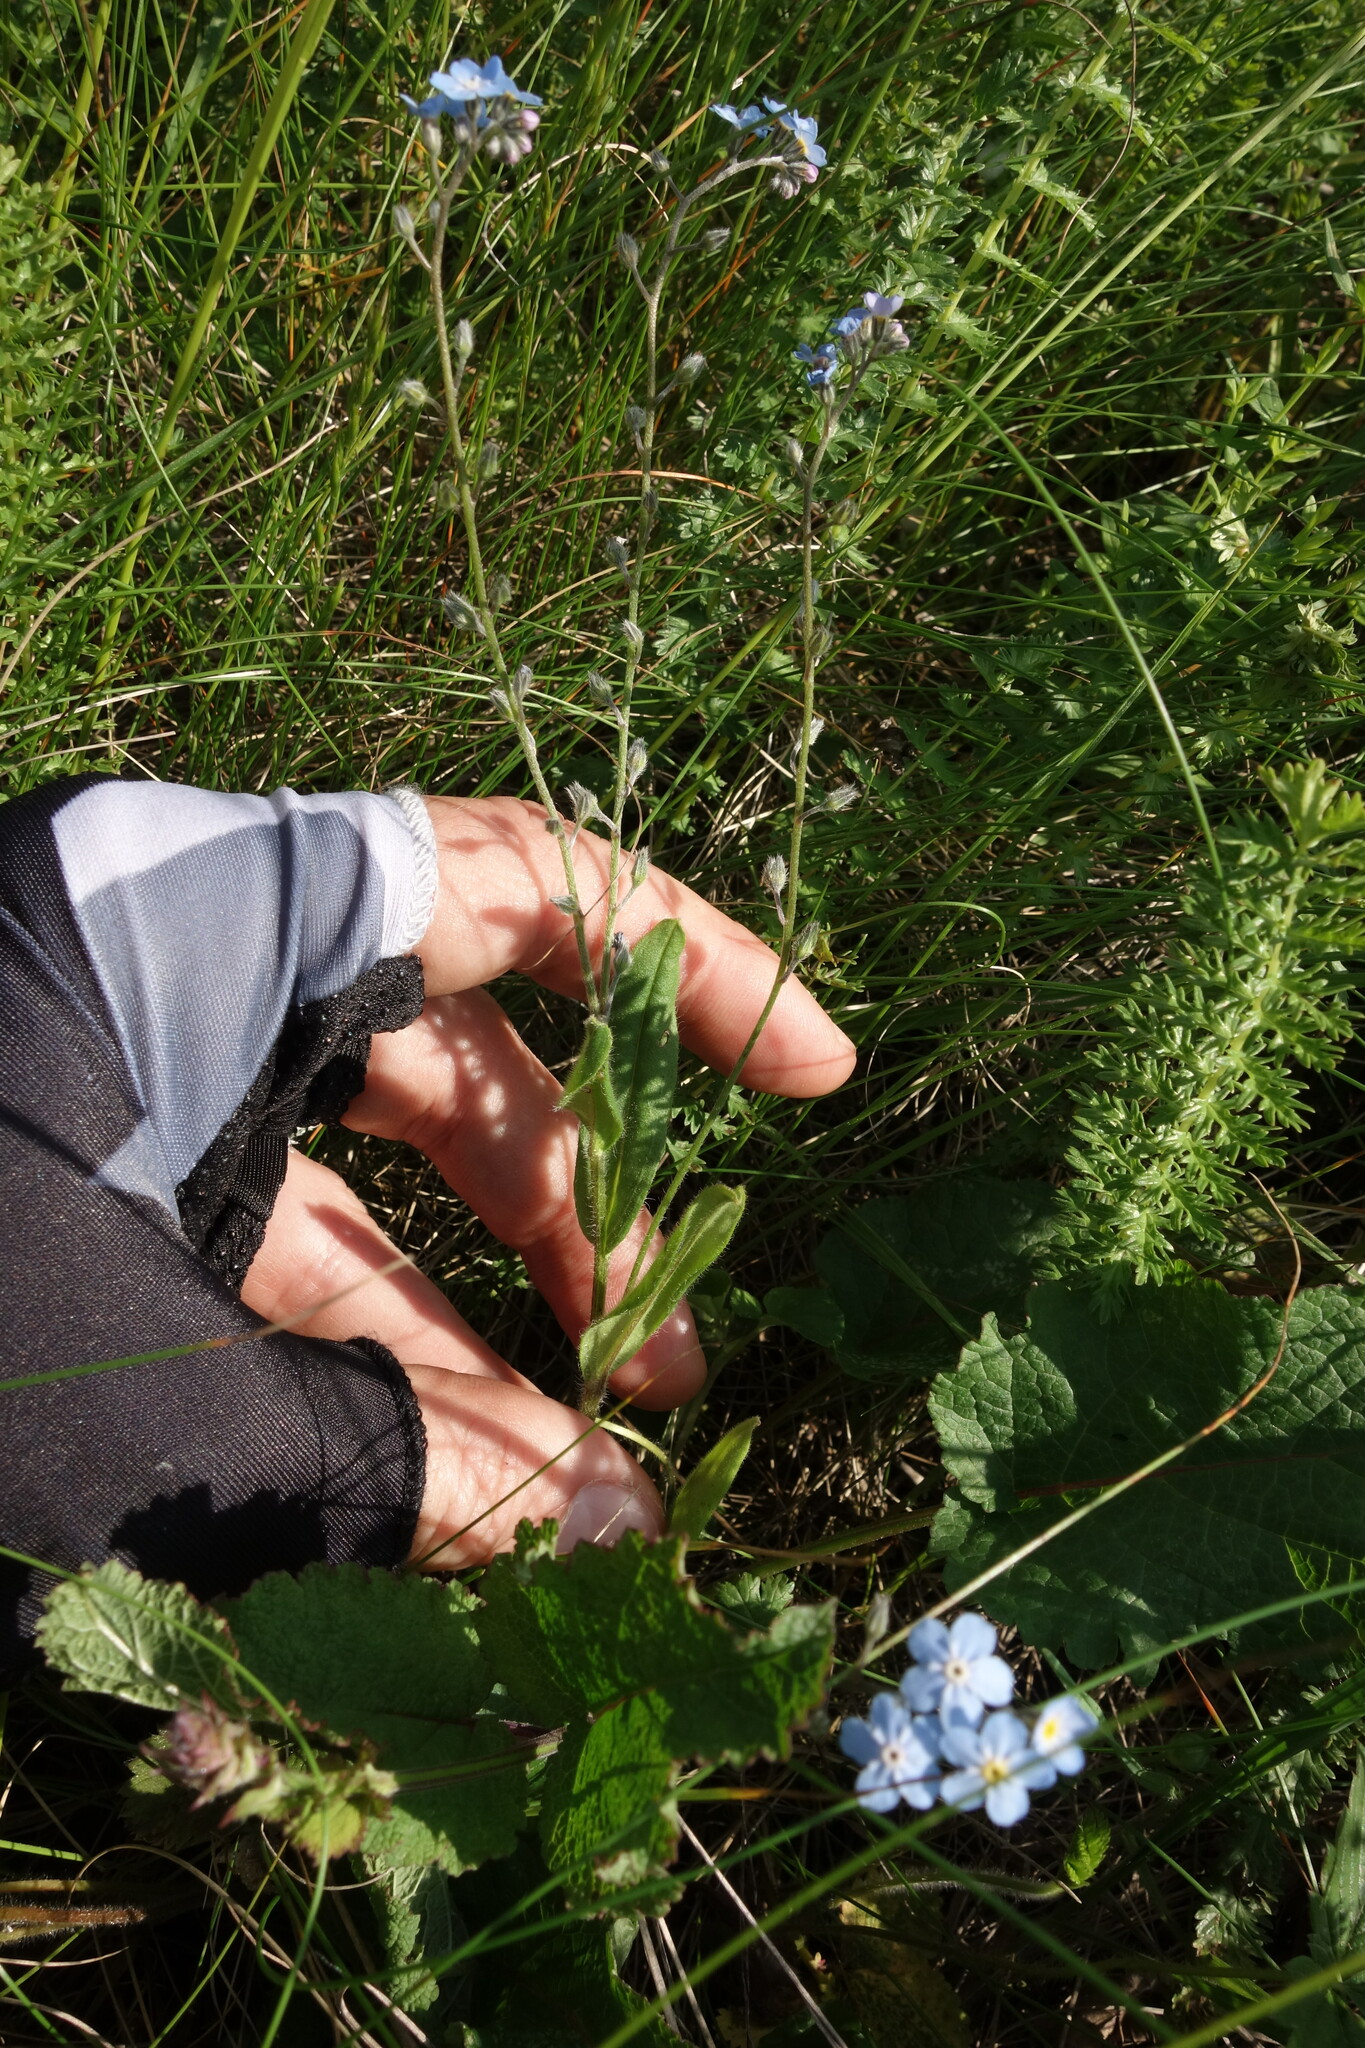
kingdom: Plantae
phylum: Tracheophyta
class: Magnoliopsida
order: Boraginales
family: Boraginaceae
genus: Myosotis
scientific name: Myosotis alpestris
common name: Alpine forget-me-not
